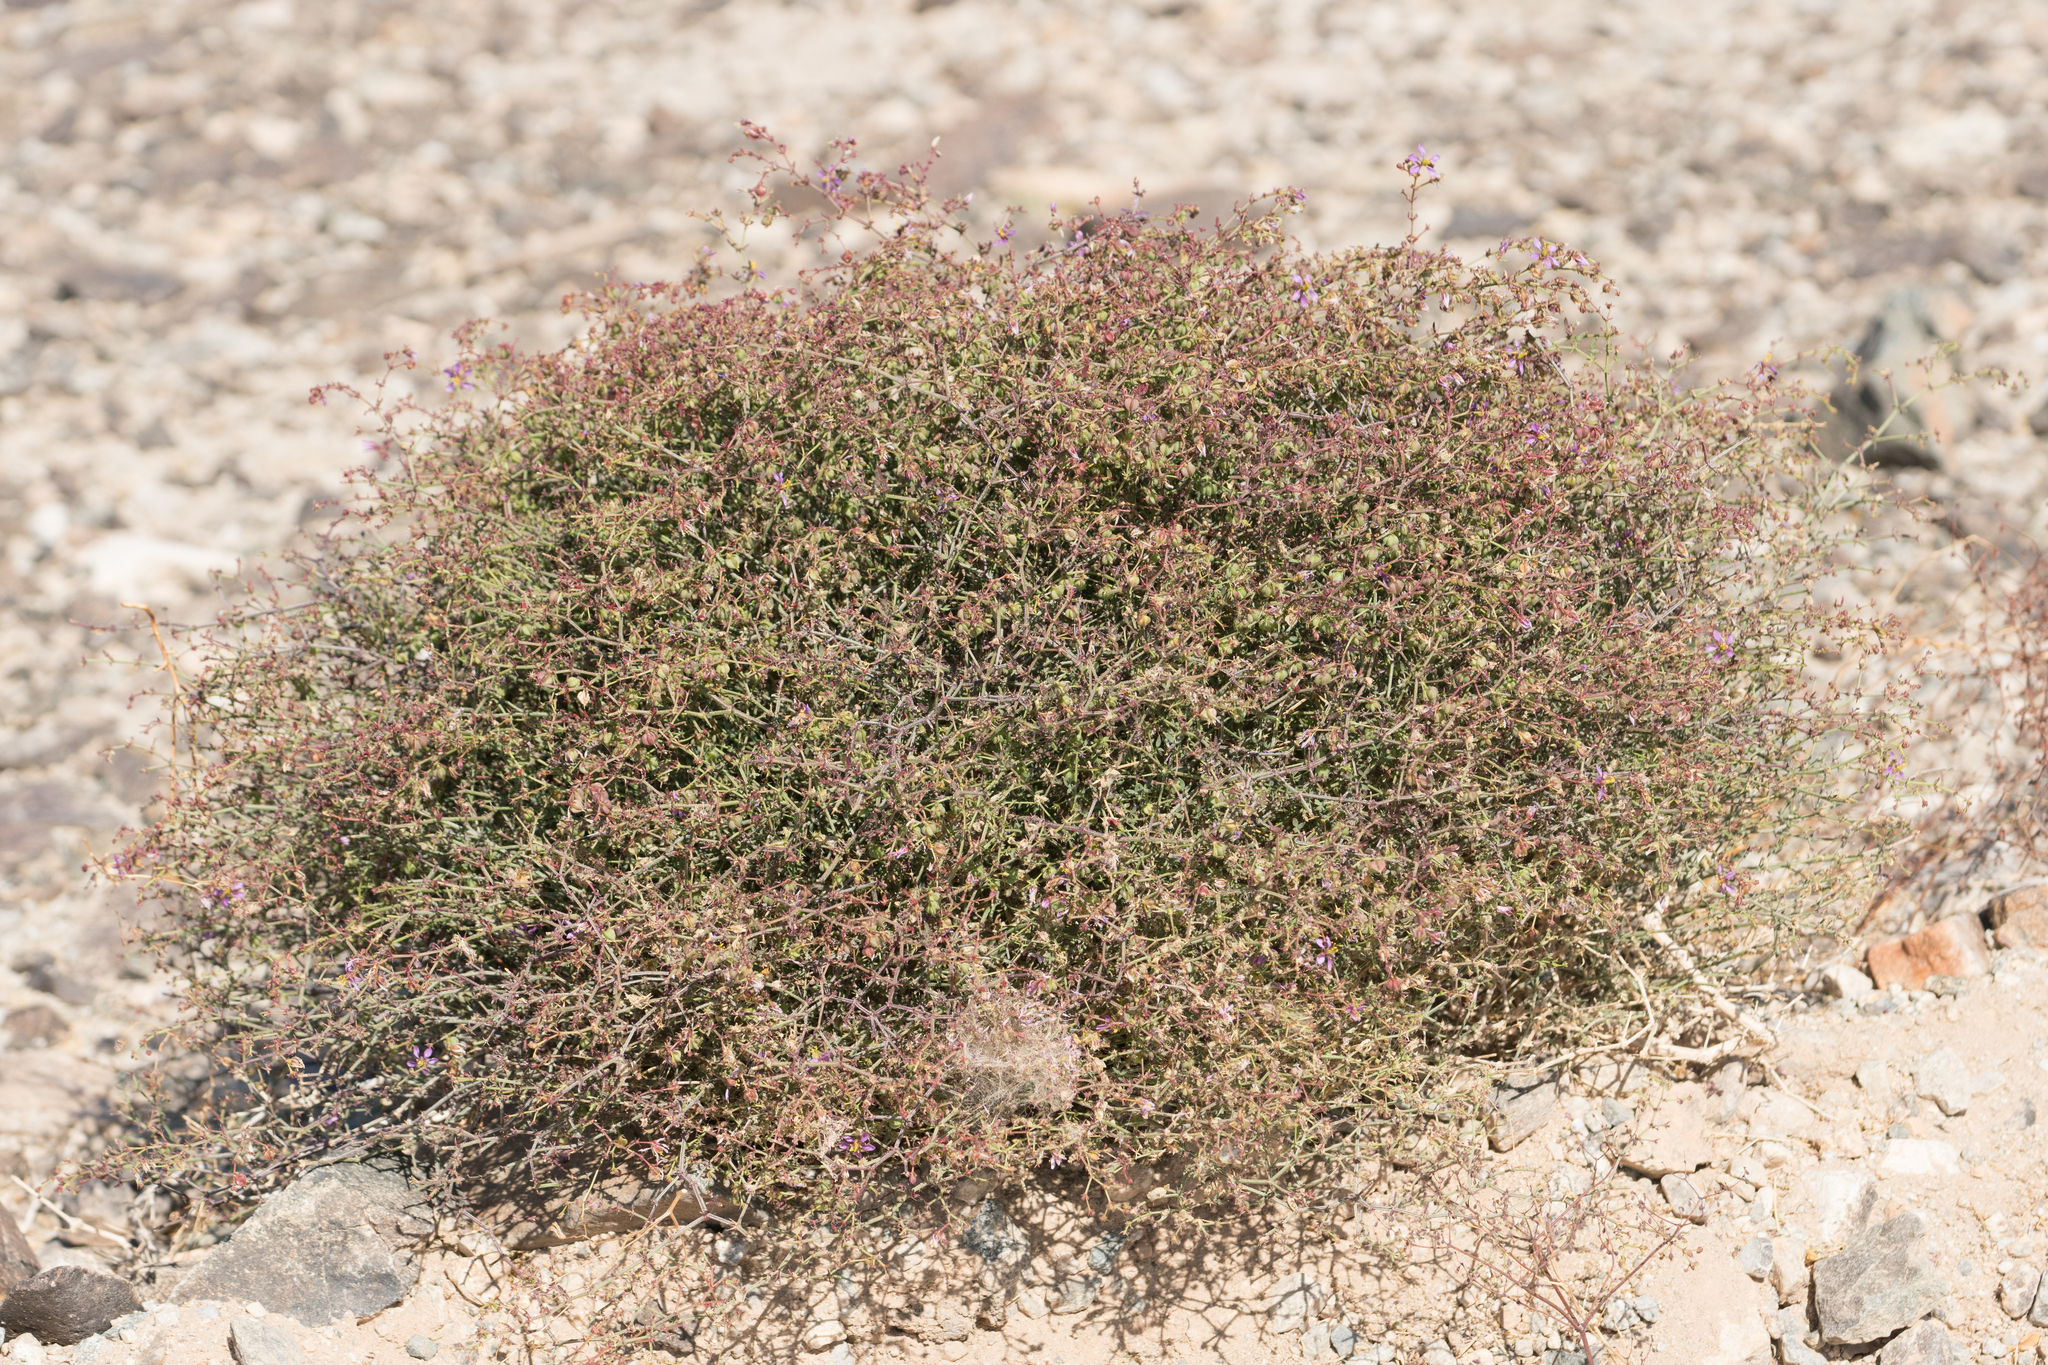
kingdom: Plantae
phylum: Tracheophyta
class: Magnoliopsida
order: Zygophyllales
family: Zygophyllaceae
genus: Fagonia
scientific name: Fagonia laevis
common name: California fagonbush
